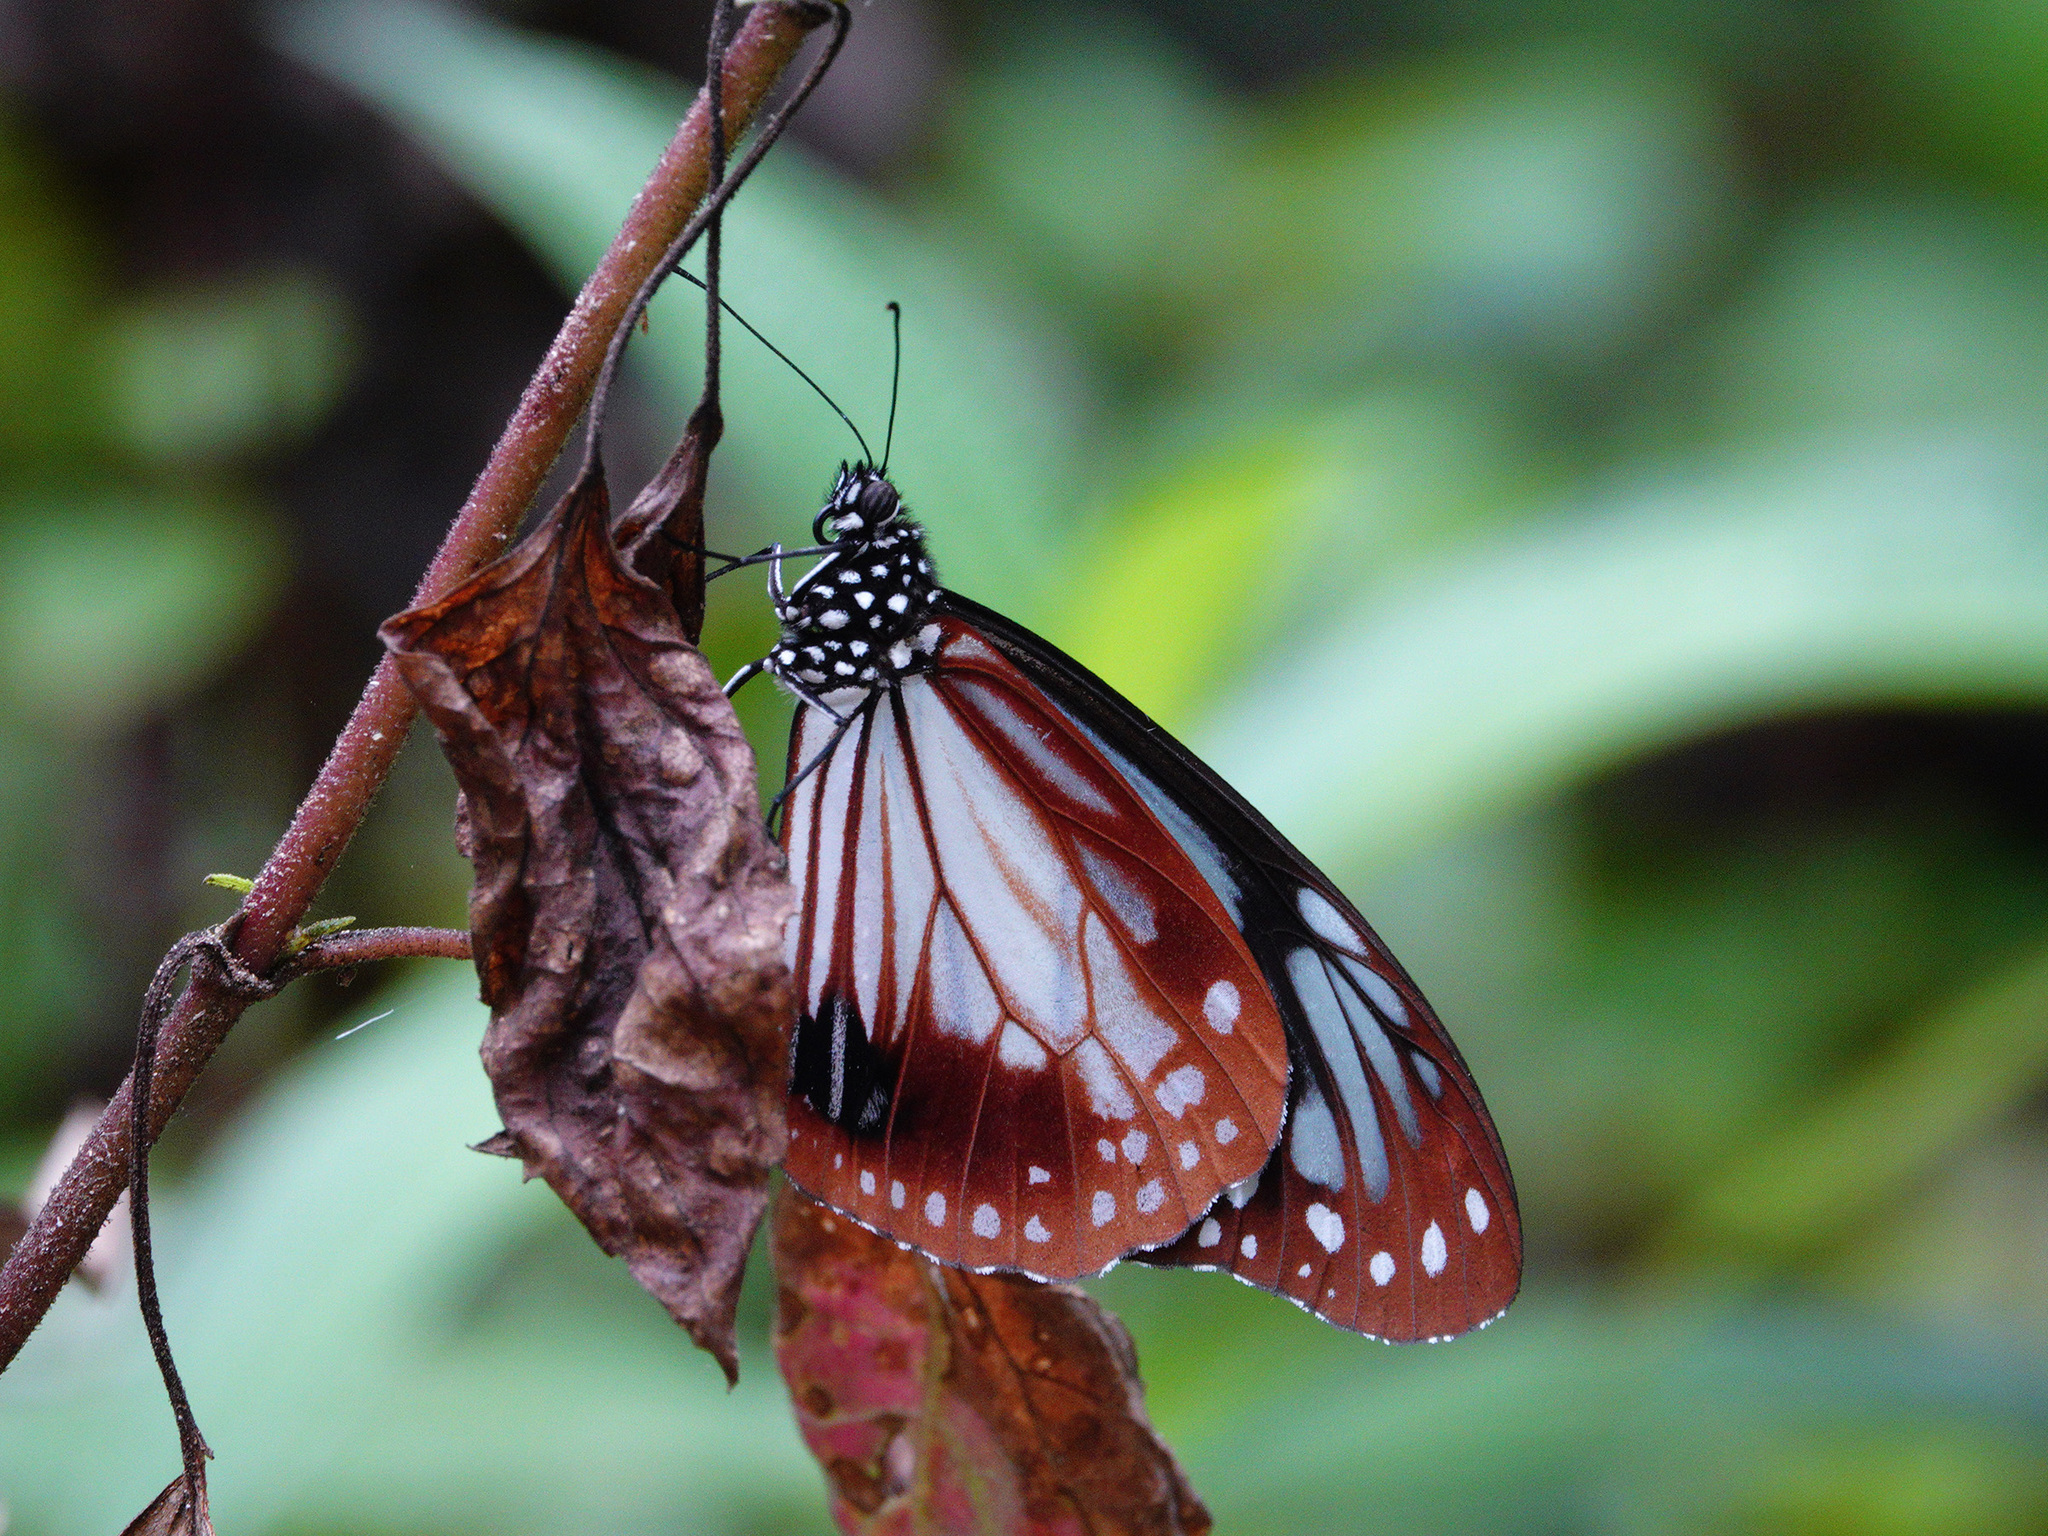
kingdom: Animalia
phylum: Arthropoda
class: Insecta
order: Lepidoptera
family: Nymphalidae
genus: Parantica
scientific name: Parantica sita
